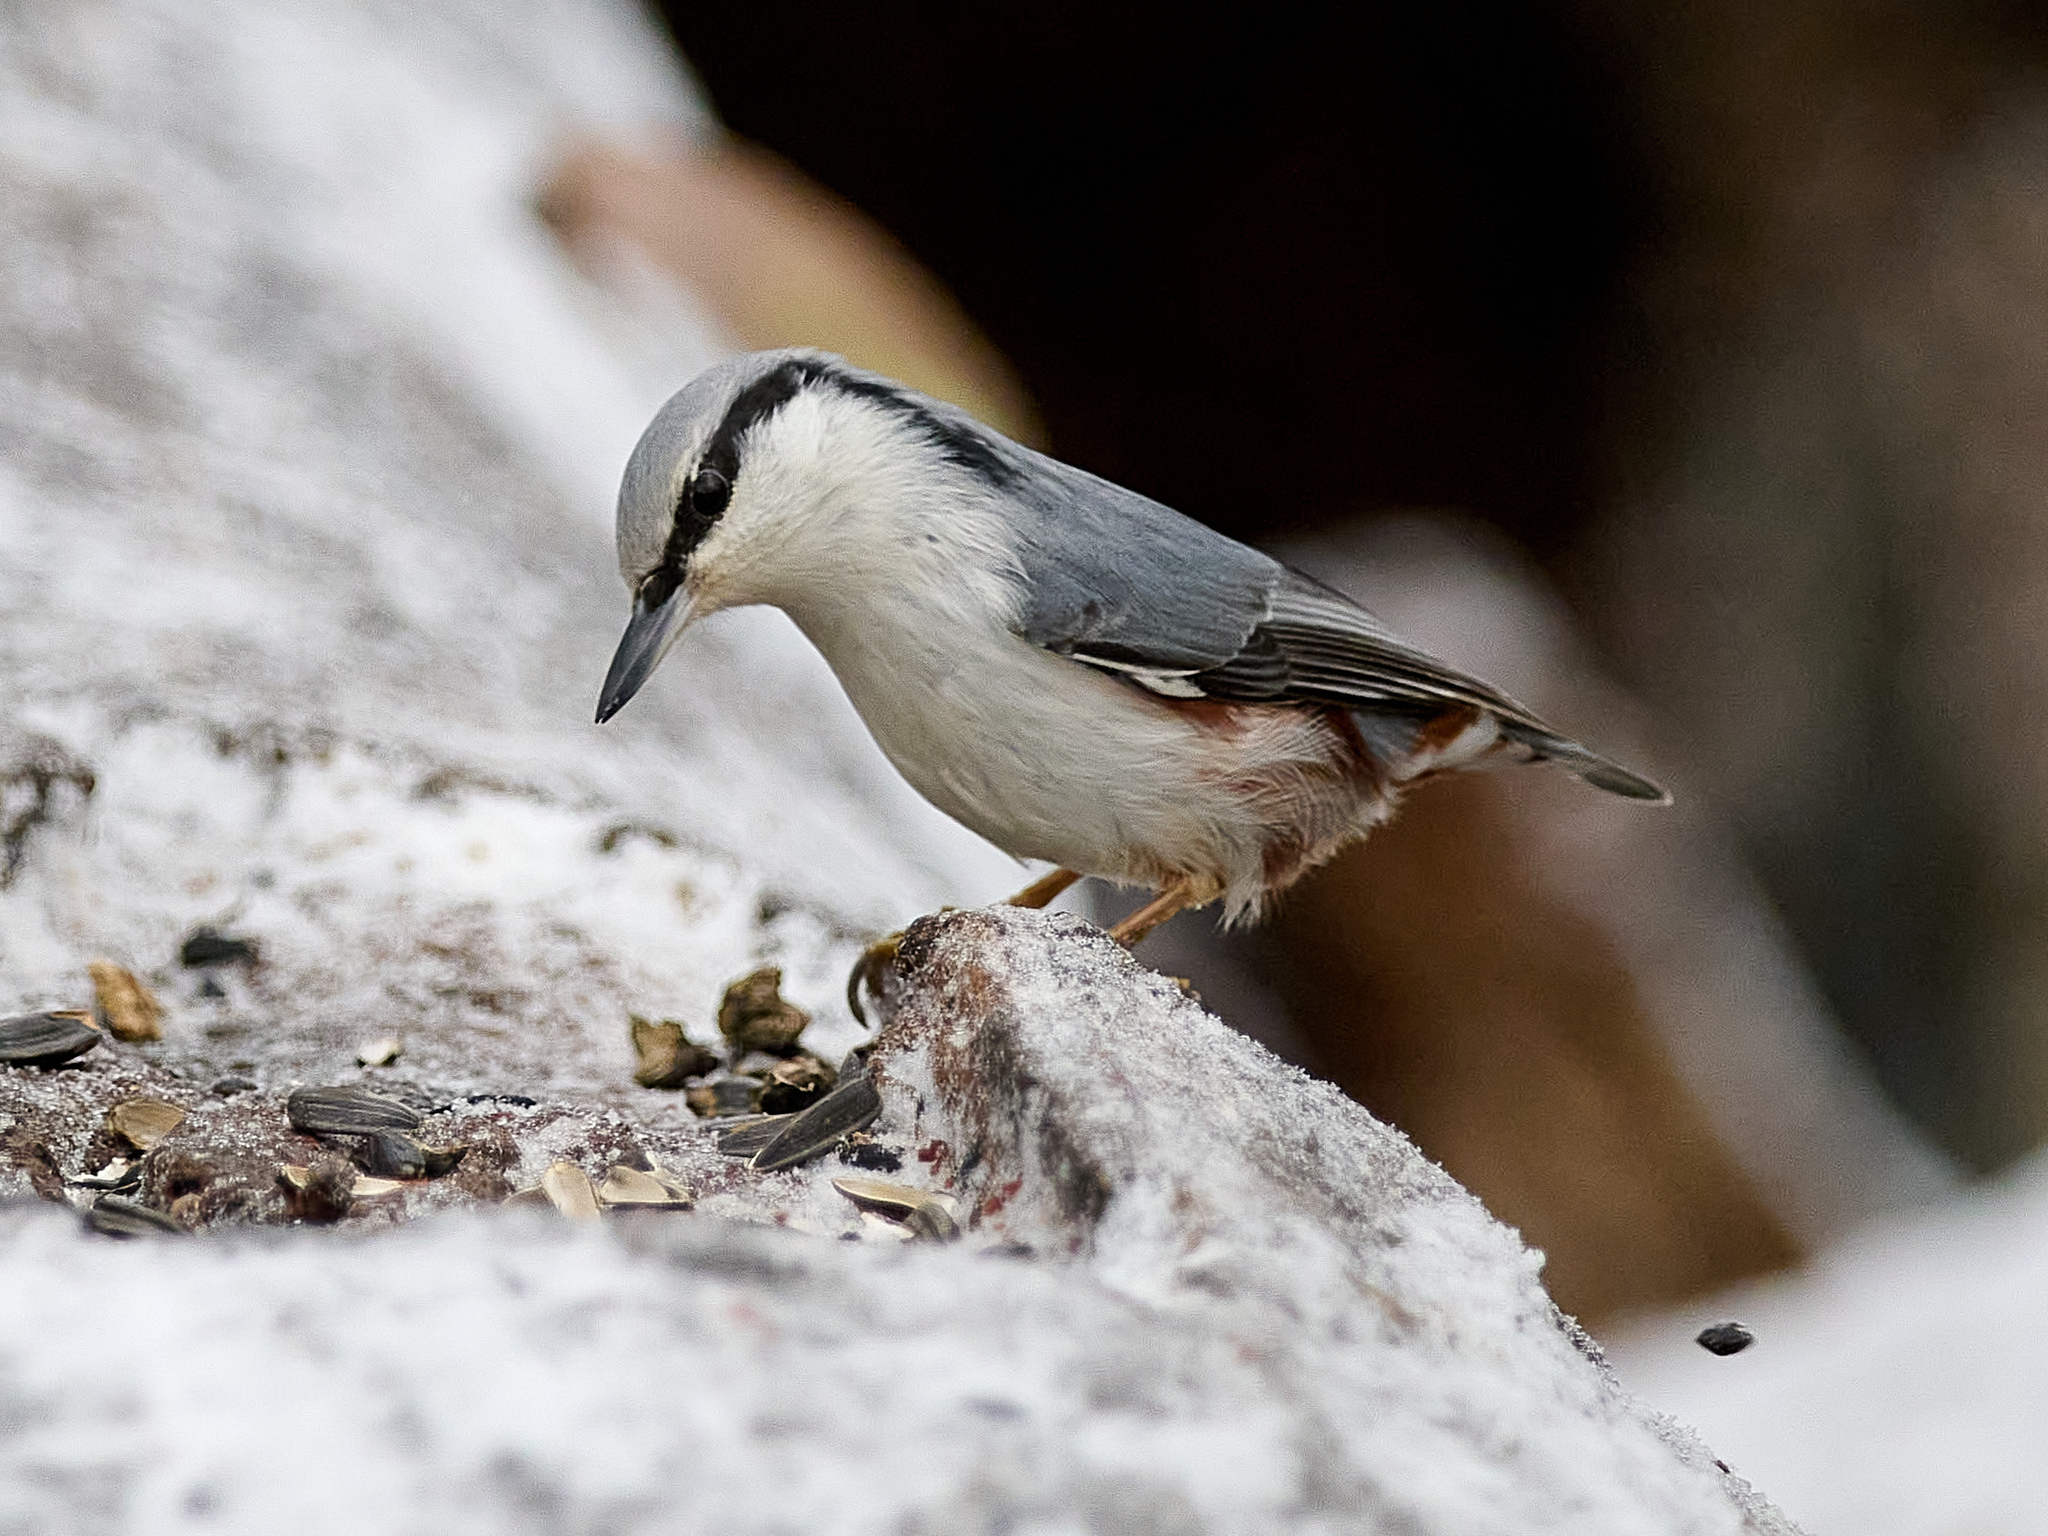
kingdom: Animalia
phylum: Chordata
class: Aves
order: Passeriformes
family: Sittidae
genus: Sitta
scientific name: Sitta europaea
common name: Eurasian nuthatch
